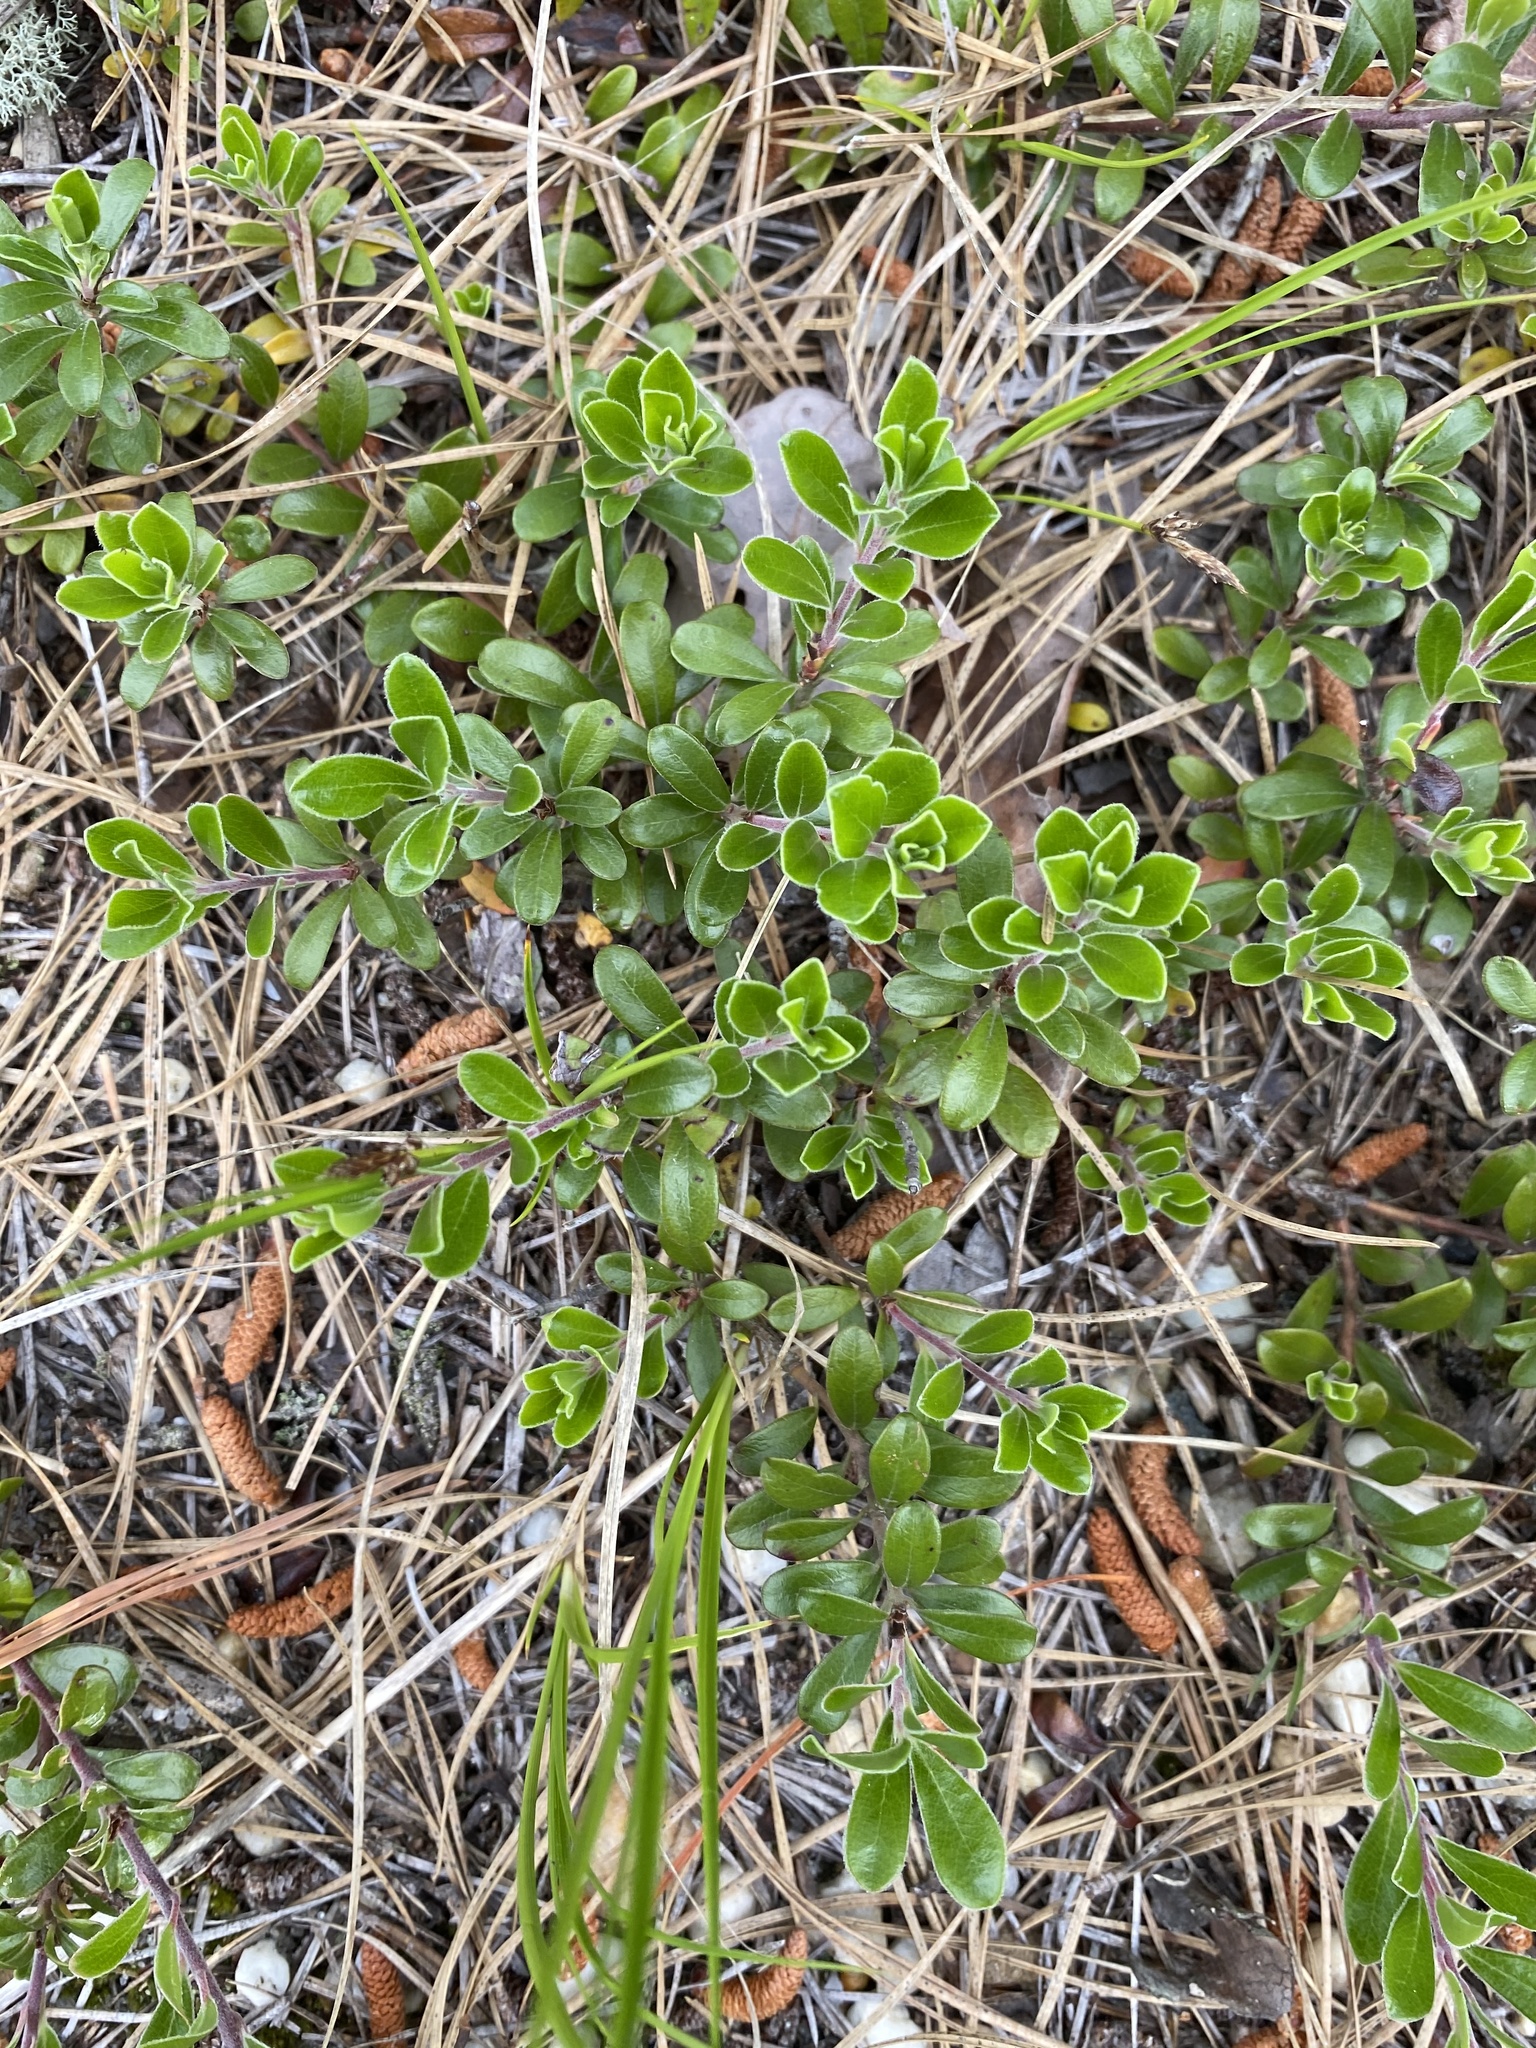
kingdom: Plantae
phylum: Tracheophyta
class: Magnoliopsida
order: Ericales
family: Ericaceae
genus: Arctostaphylos
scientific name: Arctostaphylos uva-ursi
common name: Bearberry
